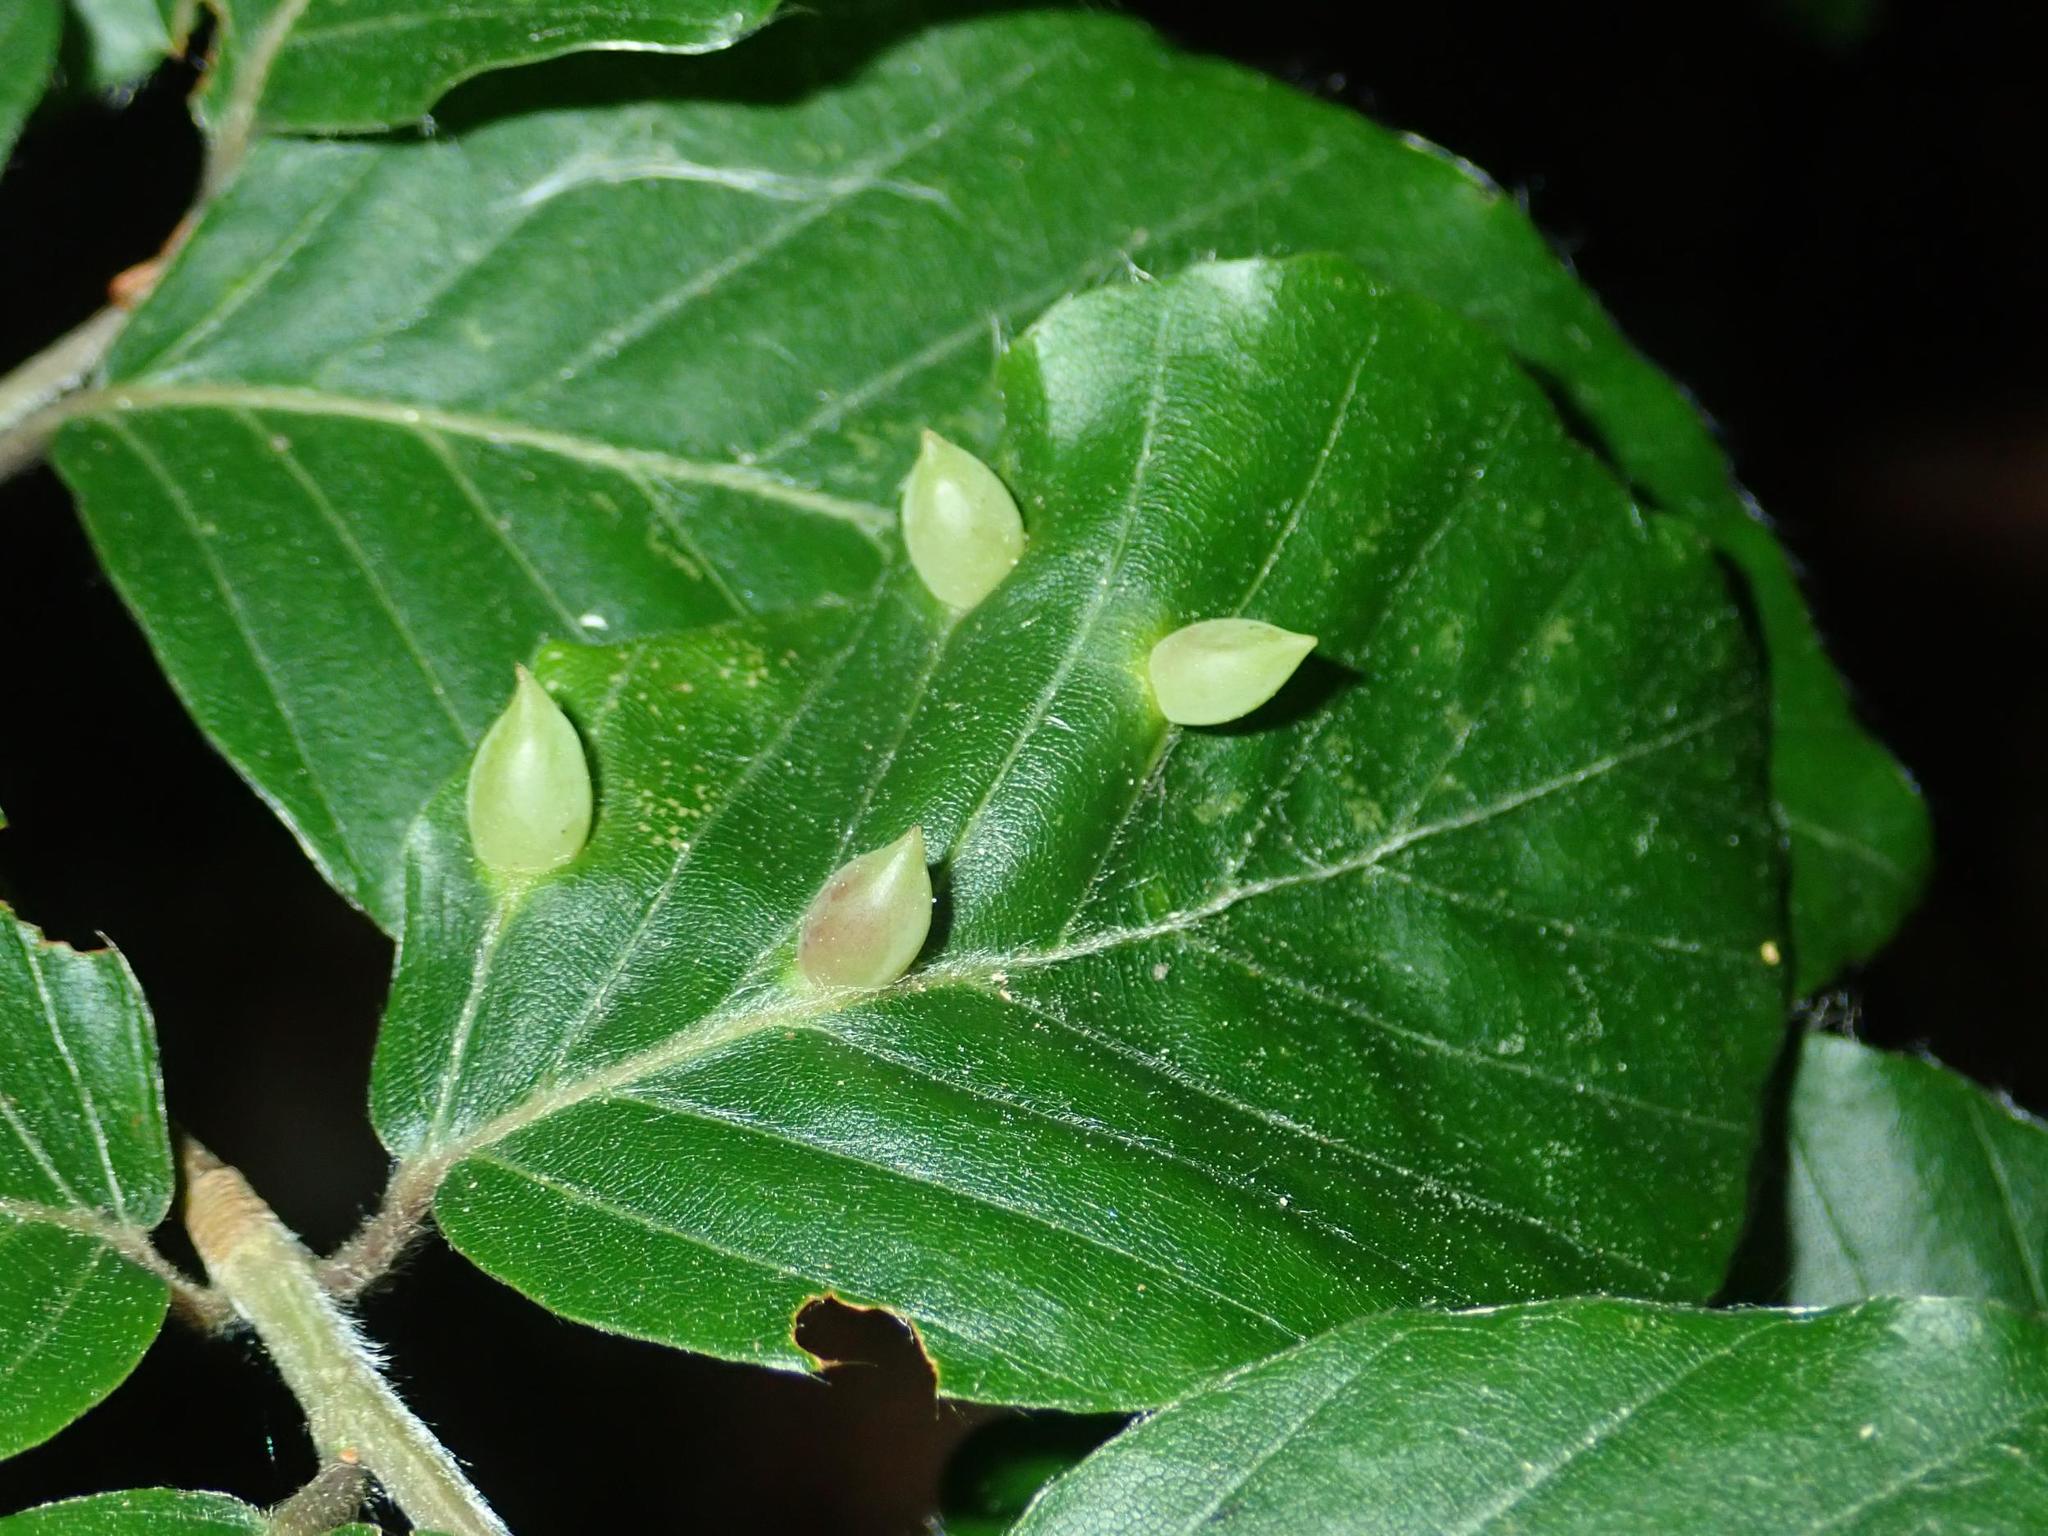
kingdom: Animalia
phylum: Arthropoda
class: Insecta
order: Diptera
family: Cecidomyiidae
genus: Mikiola
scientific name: Mikiola fagi
